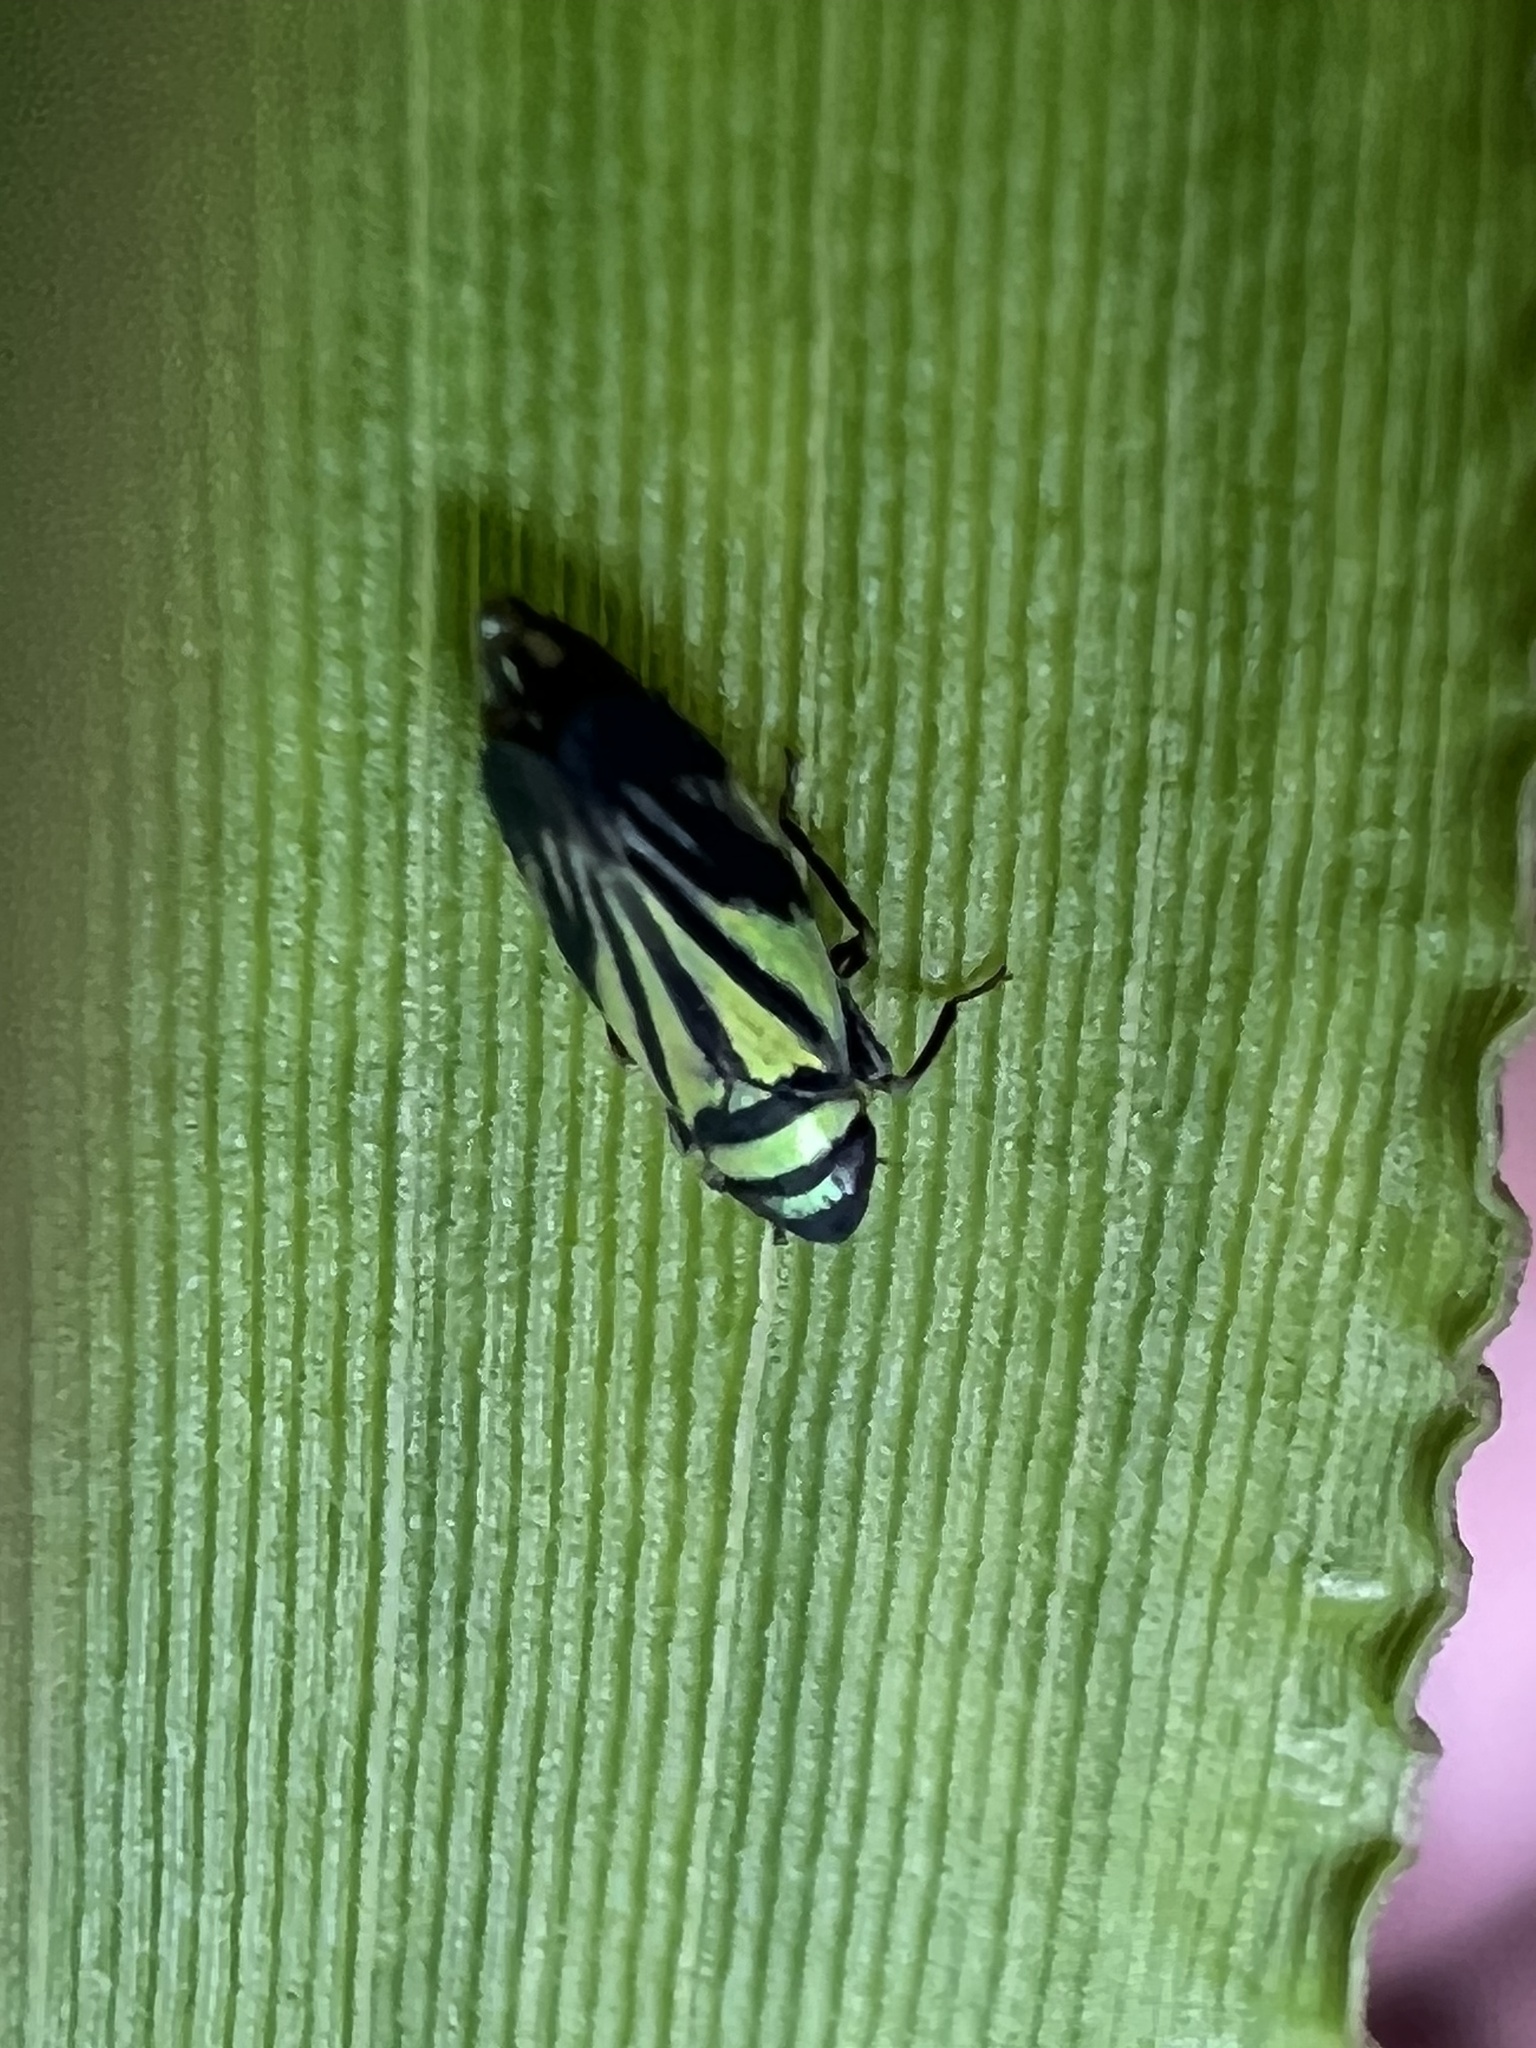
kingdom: Animalia
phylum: Arthropoda
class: Insecta
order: Hemiptera
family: Cicadellidae
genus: Stirellus
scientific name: Stirellus bicolor
